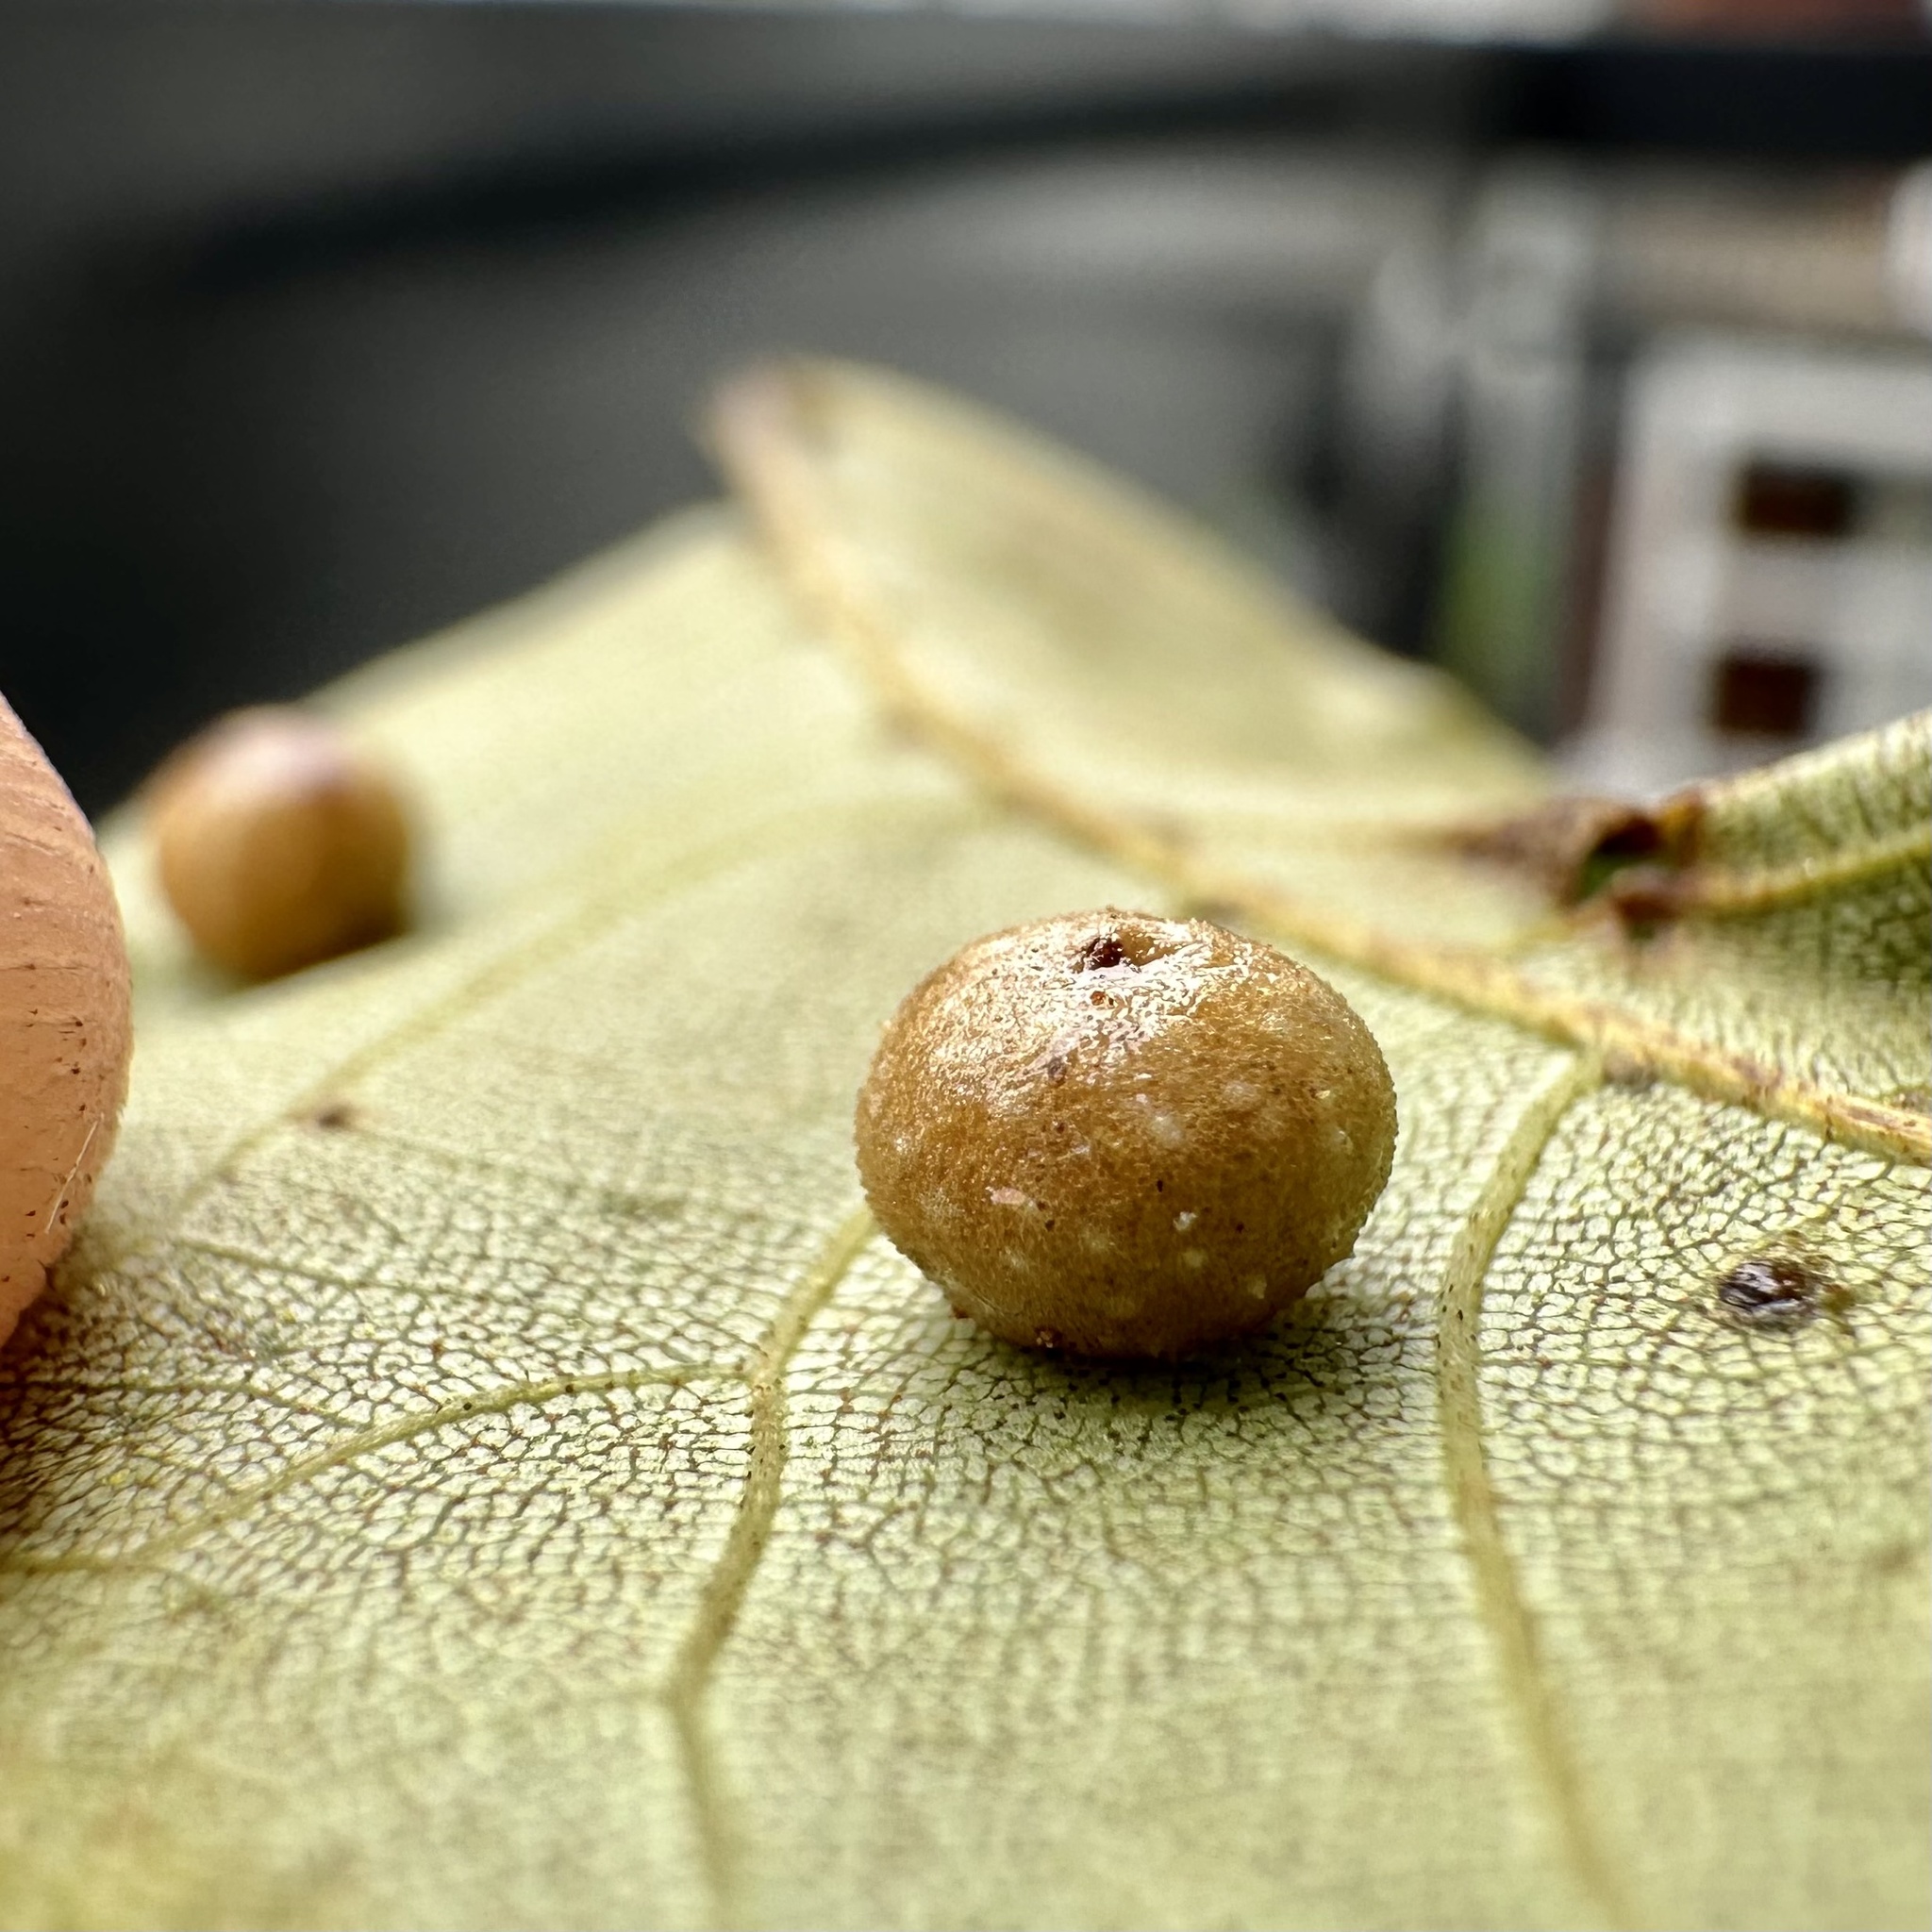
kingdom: Animalia
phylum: Arthropoda
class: Insecta
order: Diptera
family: Cecidomyiidae
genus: Caryomyia
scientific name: Caryomyia tuberculata
